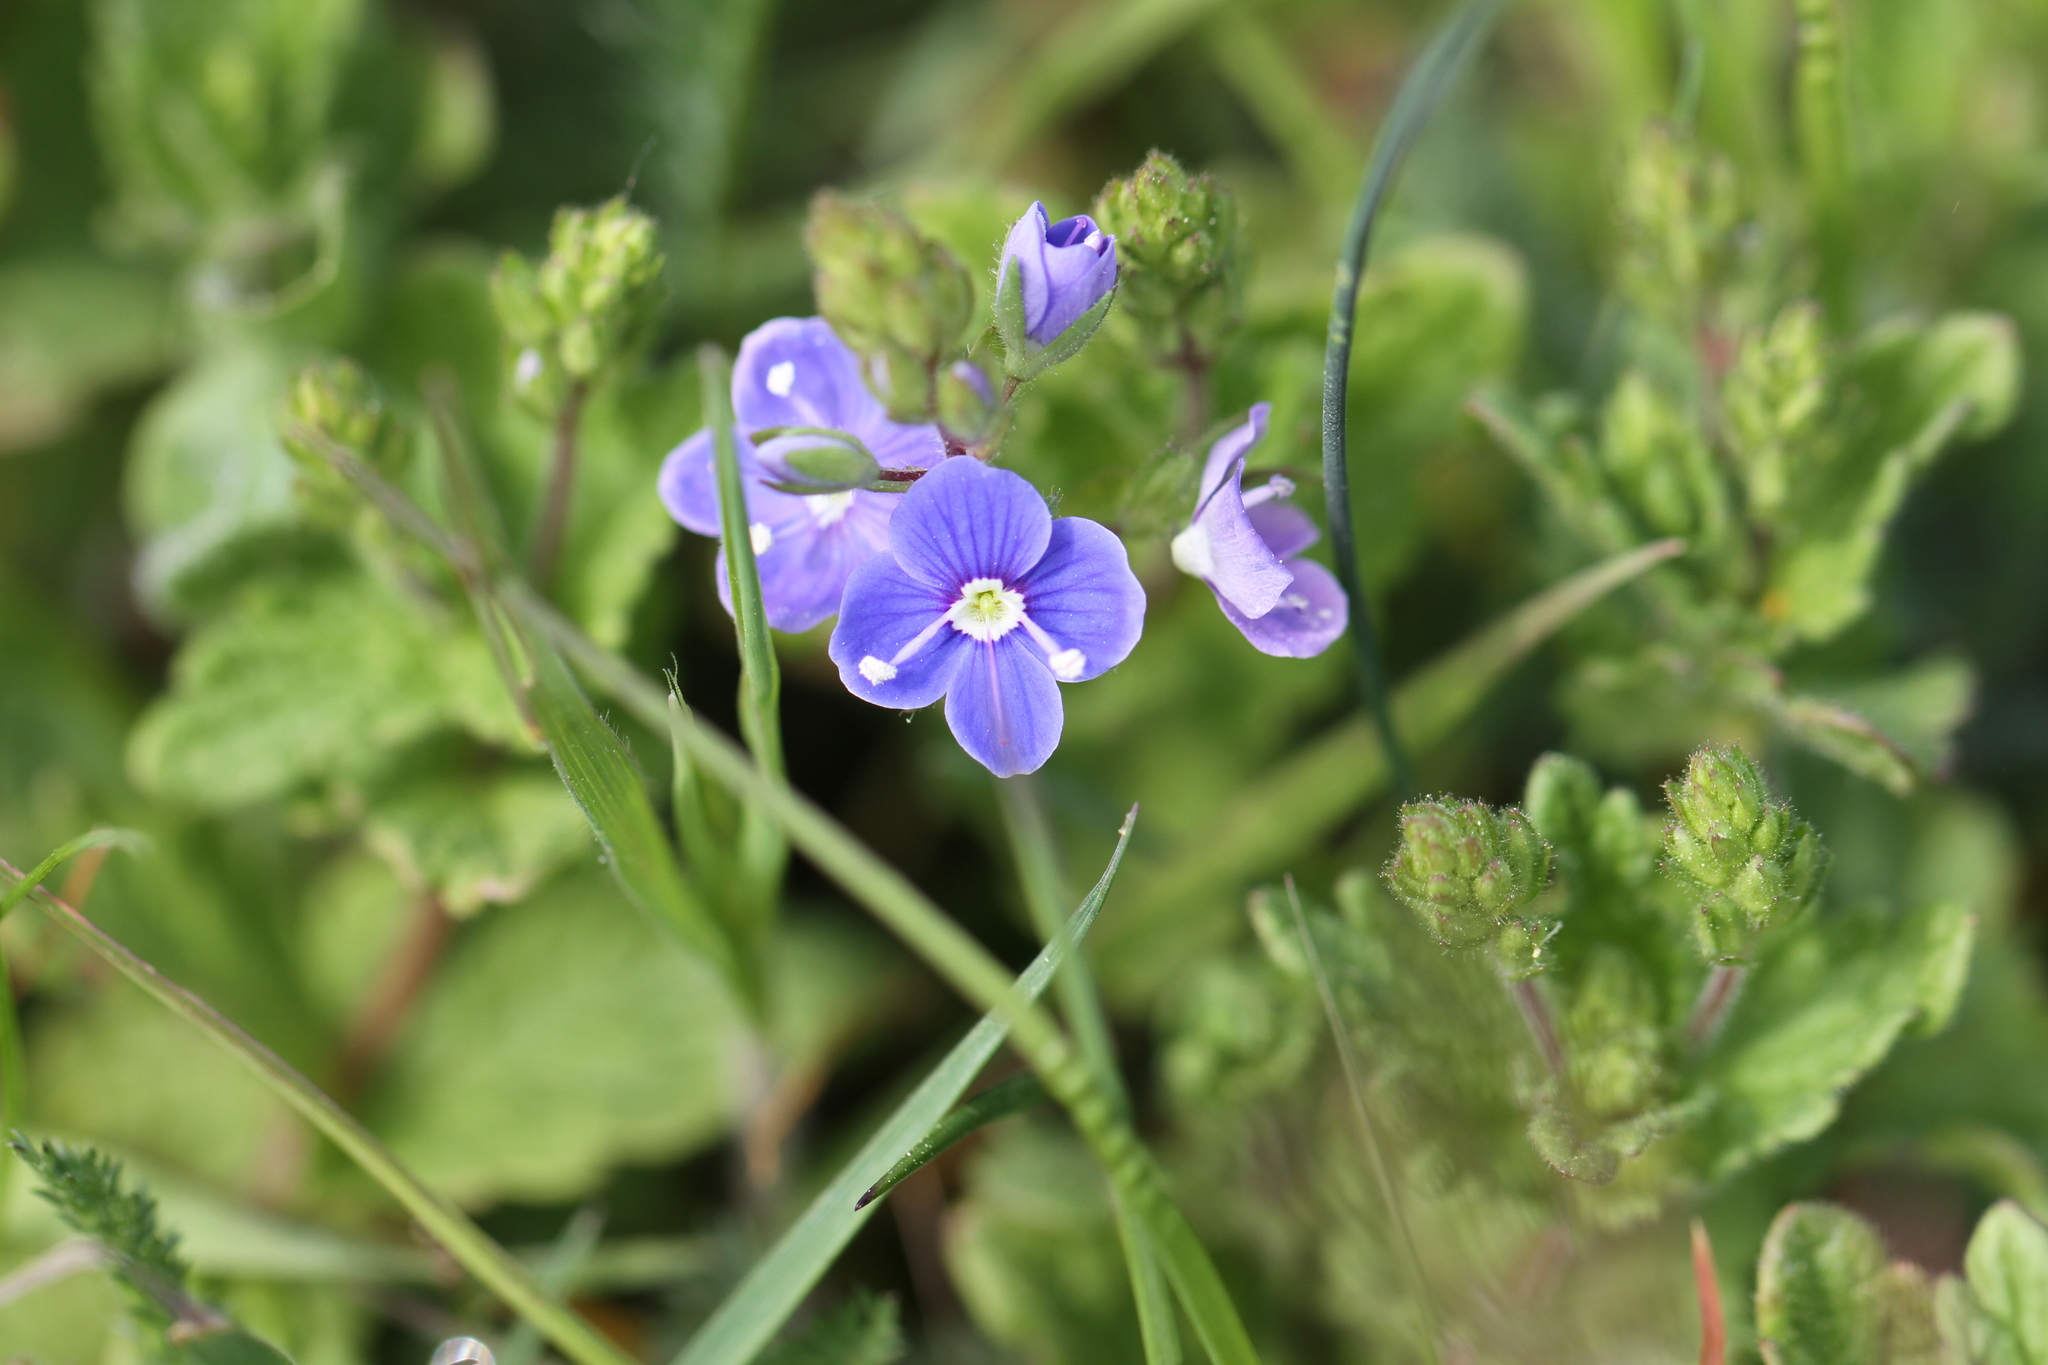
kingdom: Plantae
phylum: Tracheophyta
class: Magnoliopsida
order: Lamiales
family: Plantaginaceae
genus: Veronica
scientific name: Veronica chamaedrys
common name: Germander speedwell
